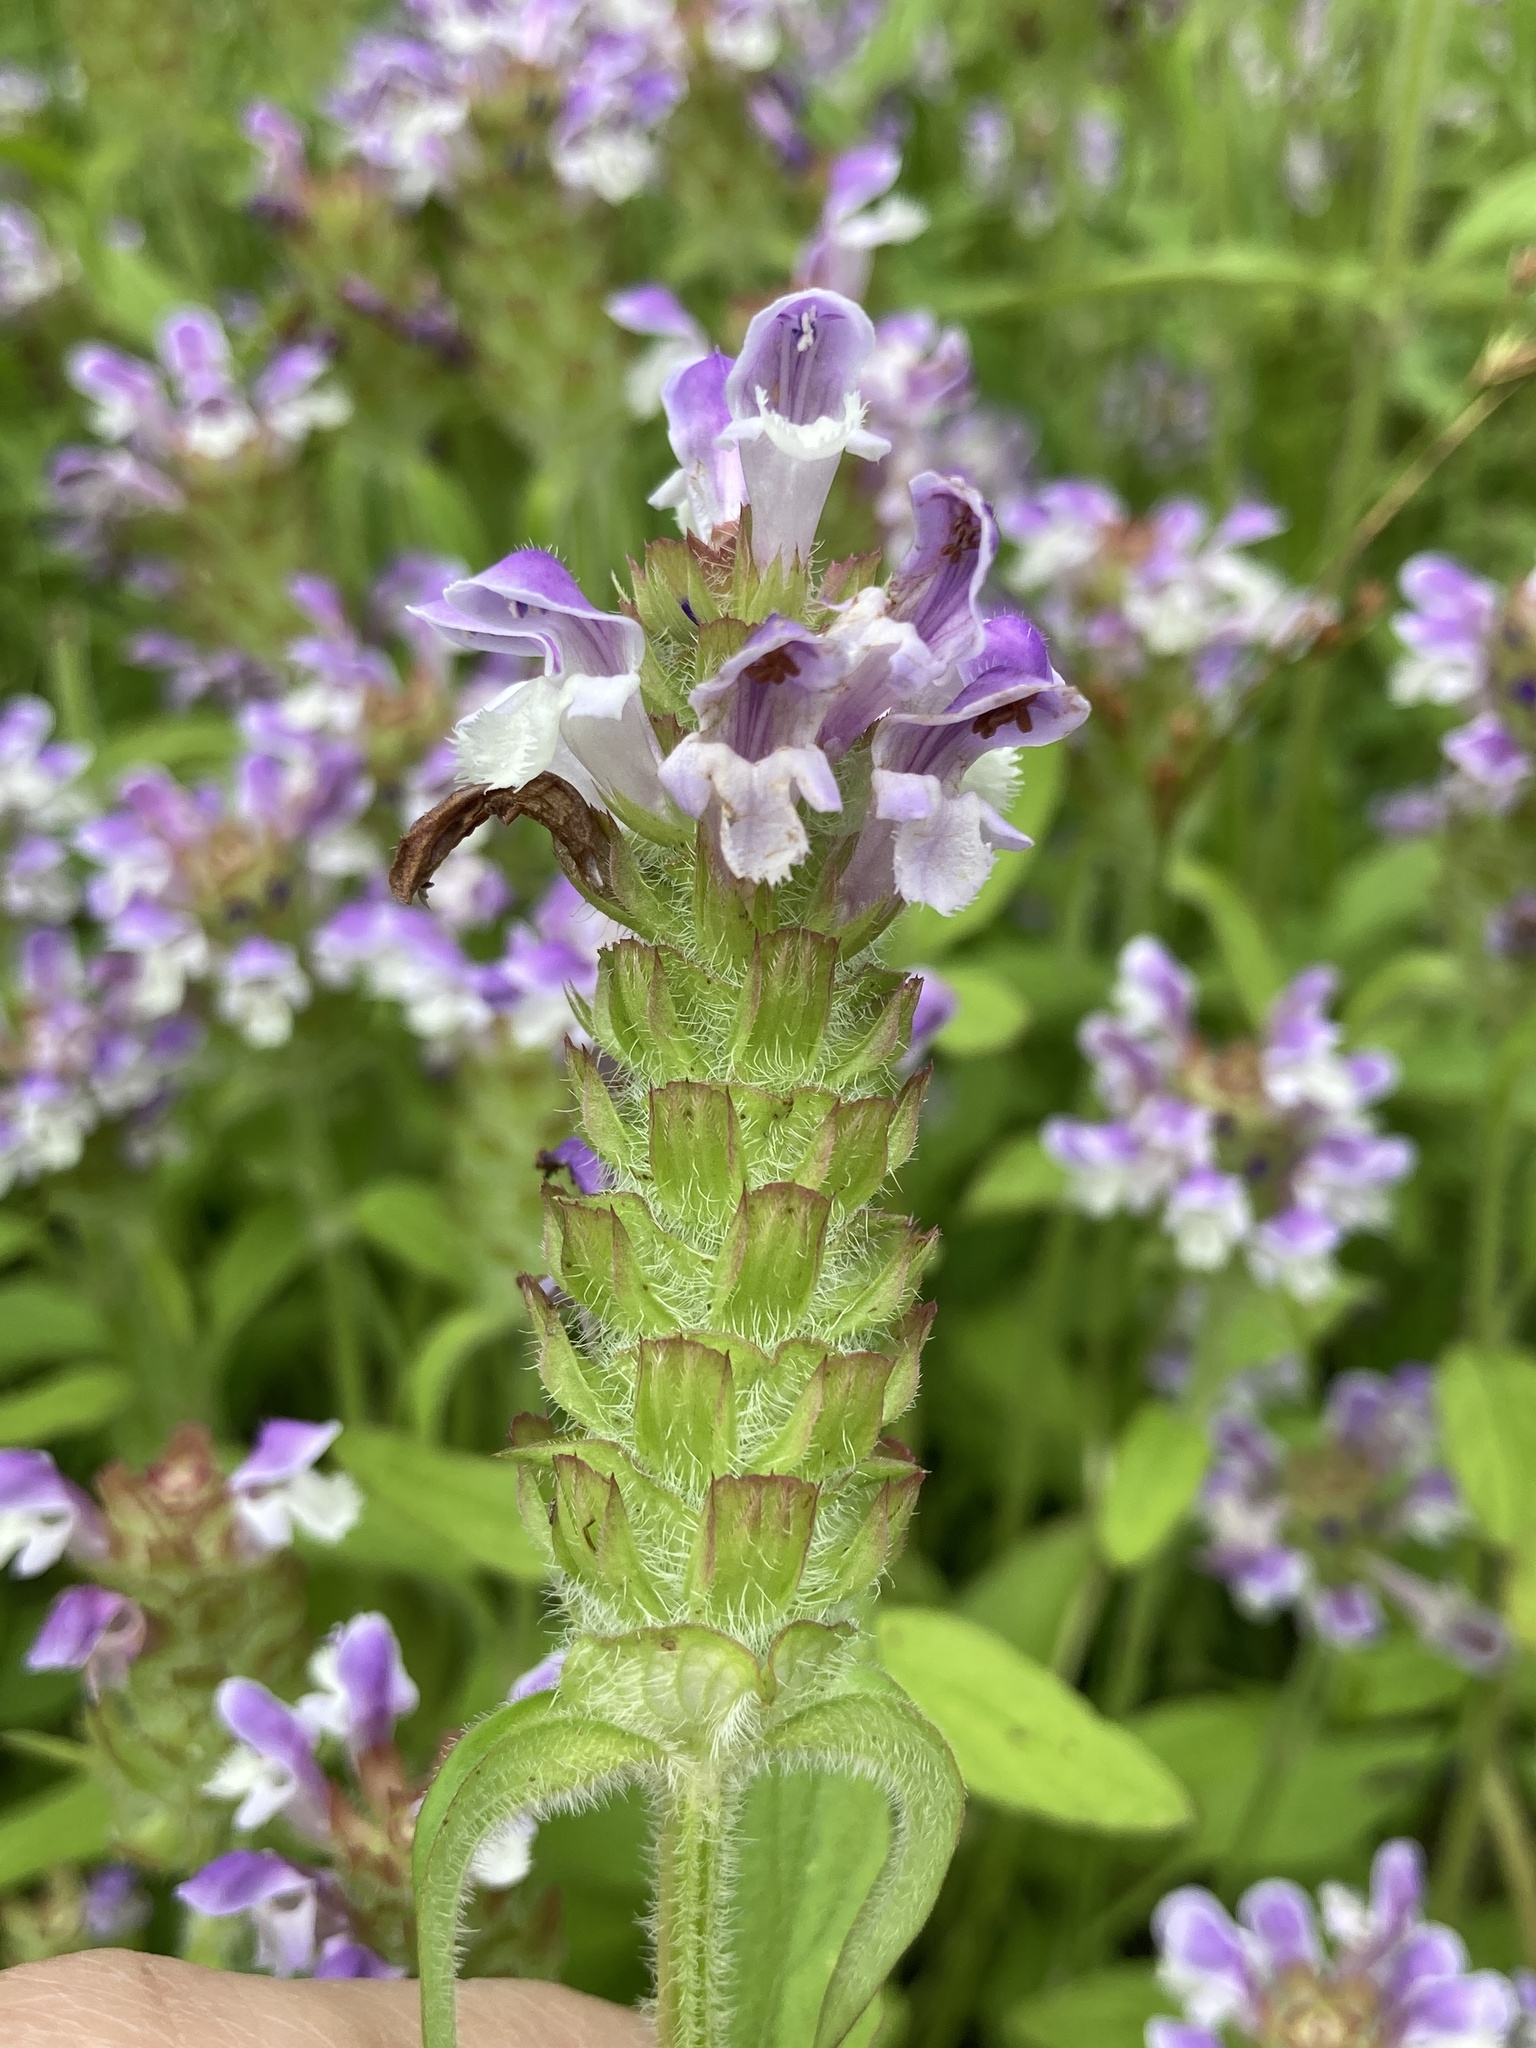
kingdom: Plantae
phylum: Tracheophyta
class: Magnoliopsida
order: Lamiales
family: Lamiaceae
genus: Prunella
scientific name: Prunella vulgaris
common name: Heal-all
